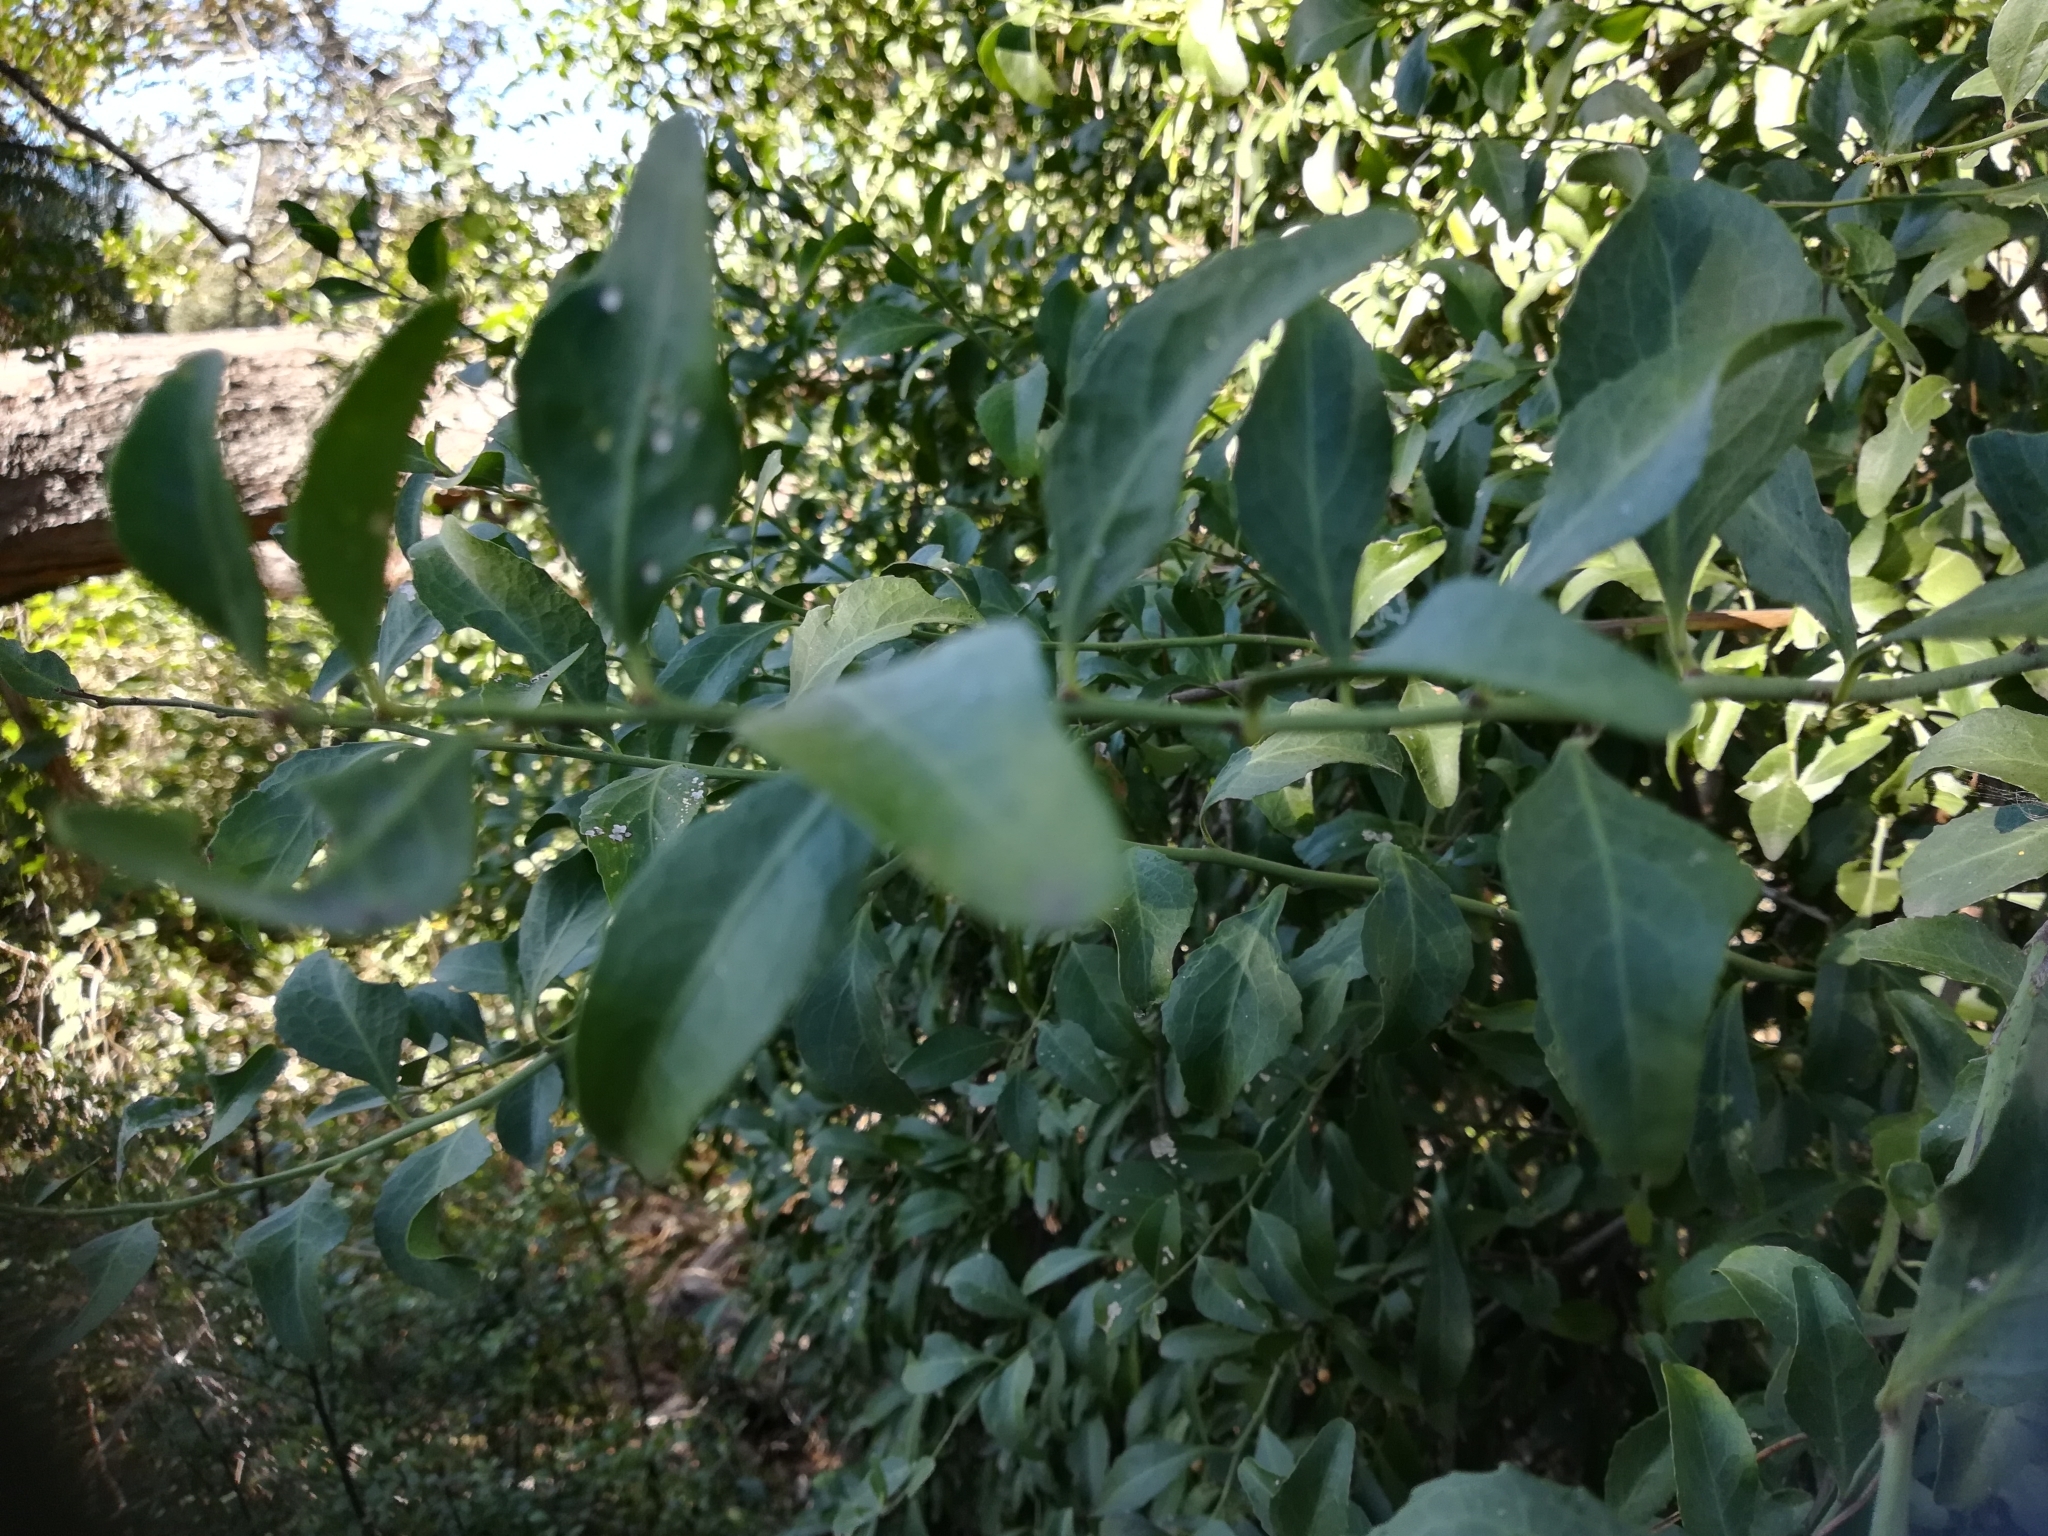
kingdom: Plantae
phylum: Tracheophyta
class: Magnoliopsida
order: Celastrales
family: Celastraceae
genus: Gymnosporia
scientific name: Gymnosporia buxifolia
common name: Common spike-thorn
